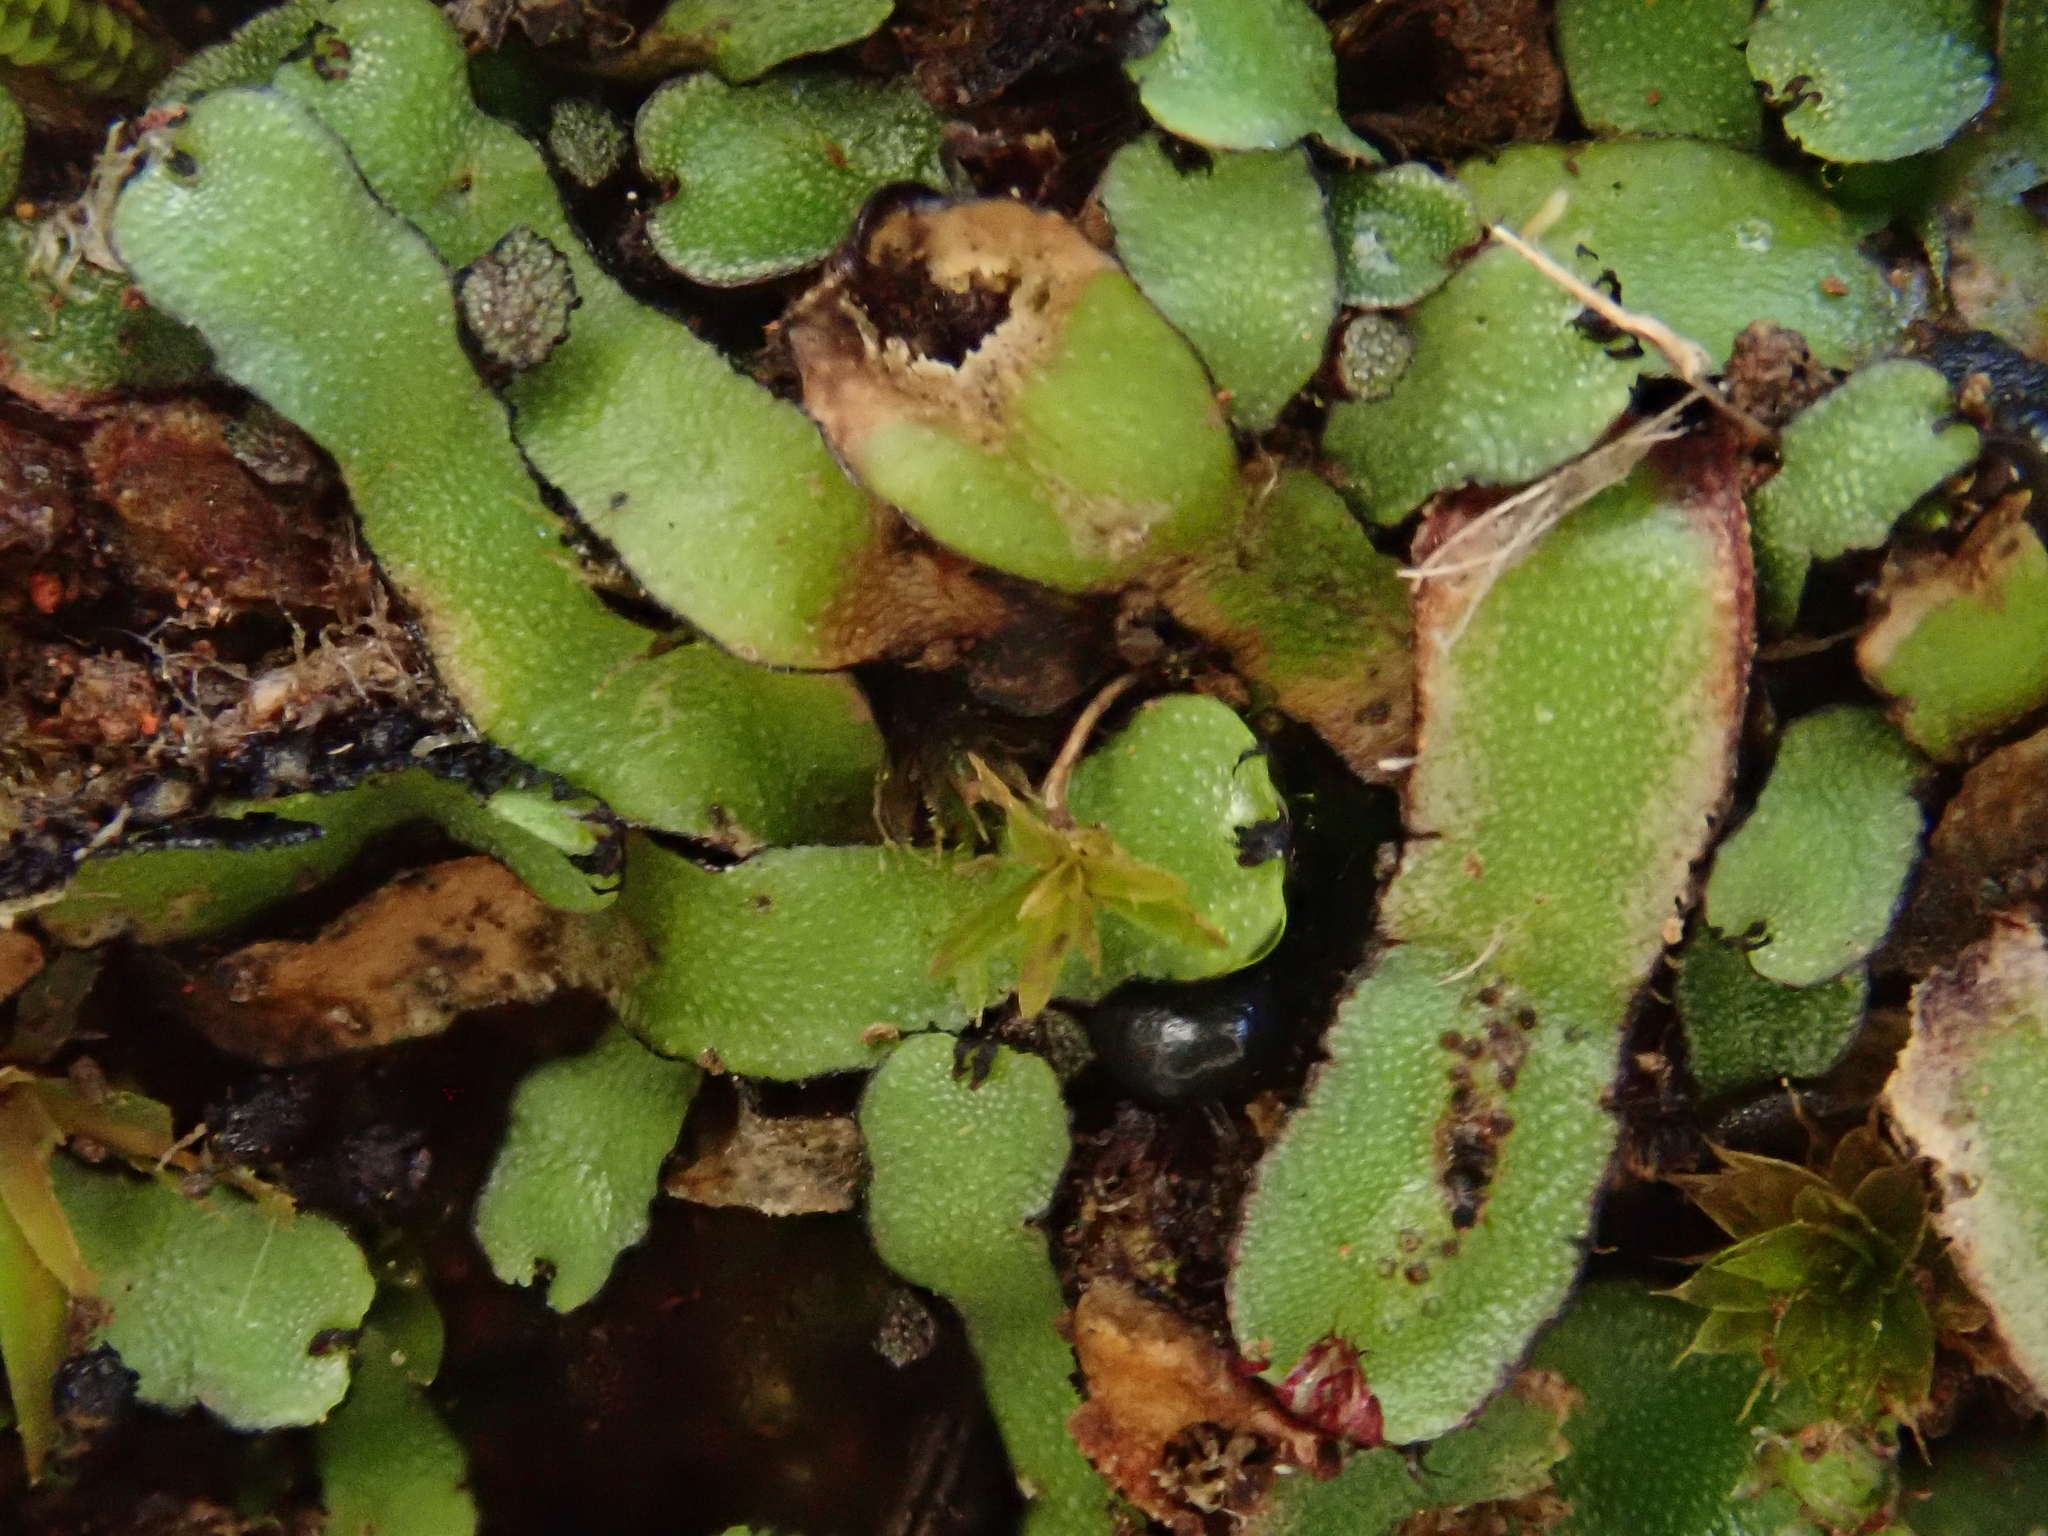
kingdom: Plantae
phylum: Marchantiophyta
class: Marchantiopsida
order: Marchantiales
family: Aytoniaceae
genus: Mannia
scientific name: Mannia androgyna
